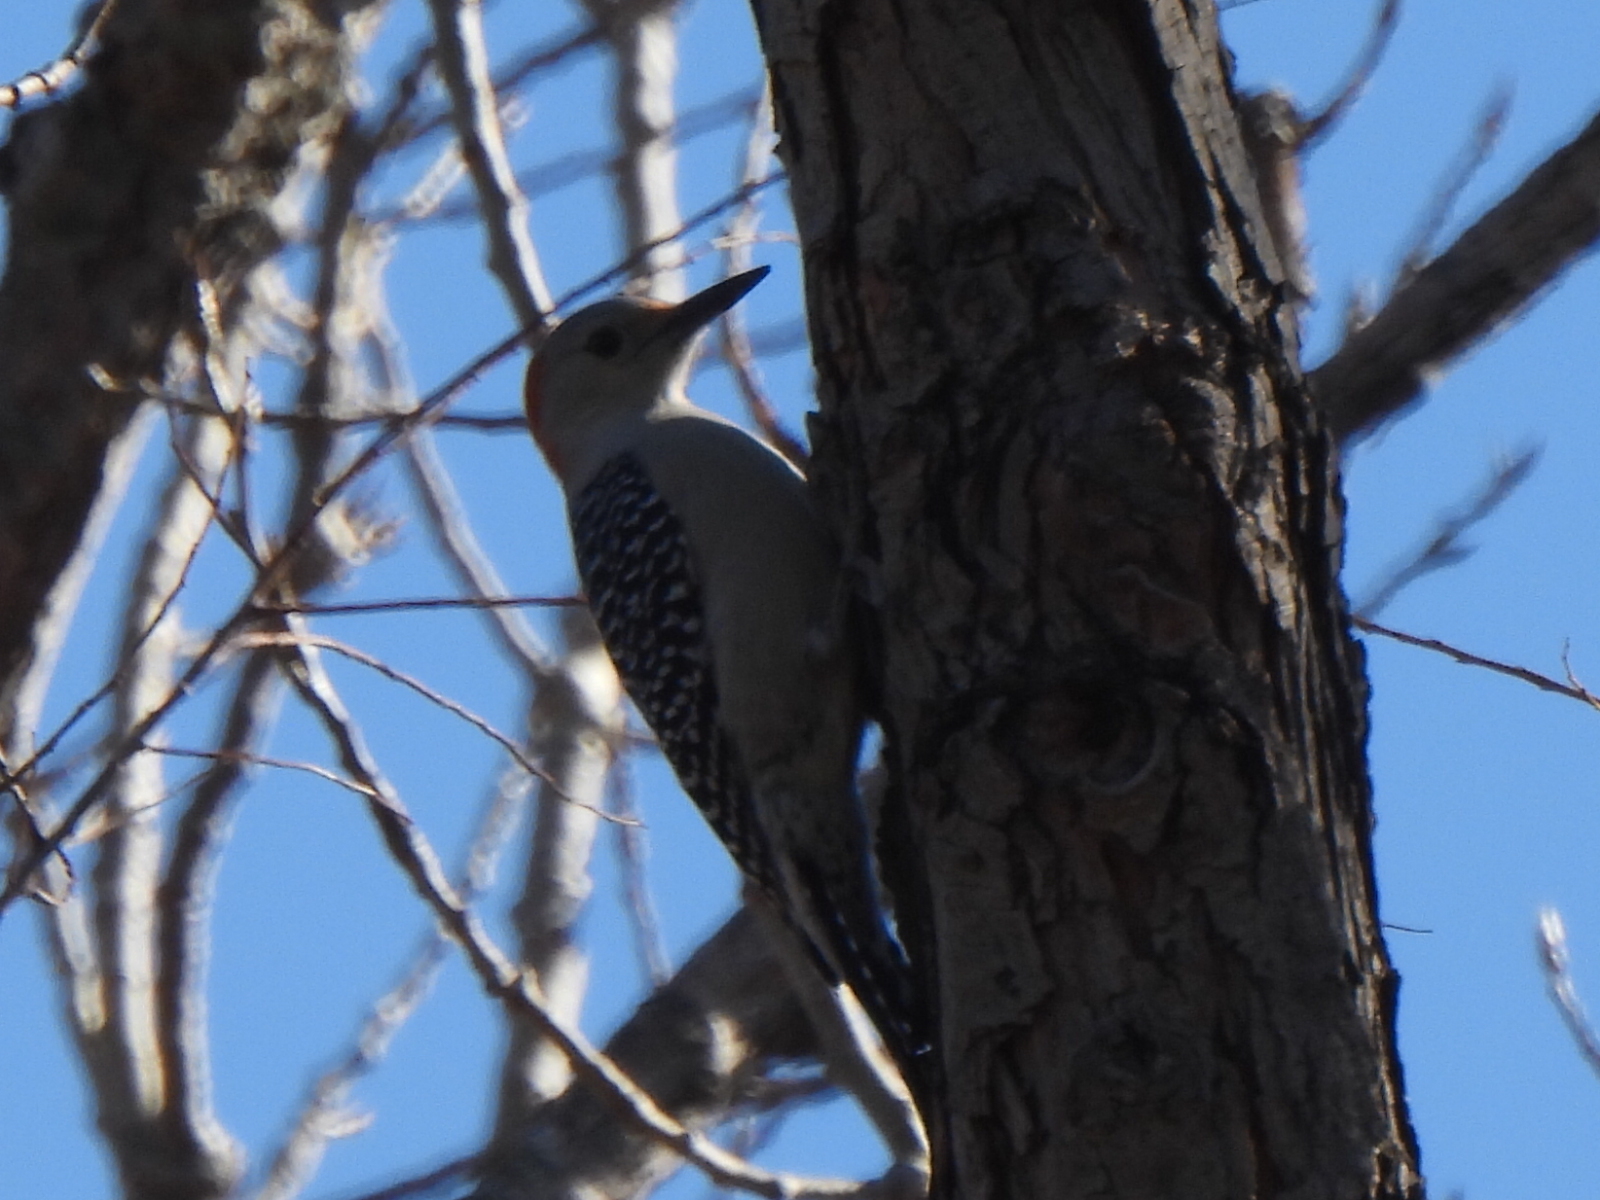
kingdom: Animalia
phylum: Chordata
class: Aves
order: Piciformes
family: Picidae
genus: Melanerpes
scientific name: Melanerpes carolinus
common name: Red-bellied woodpecker
